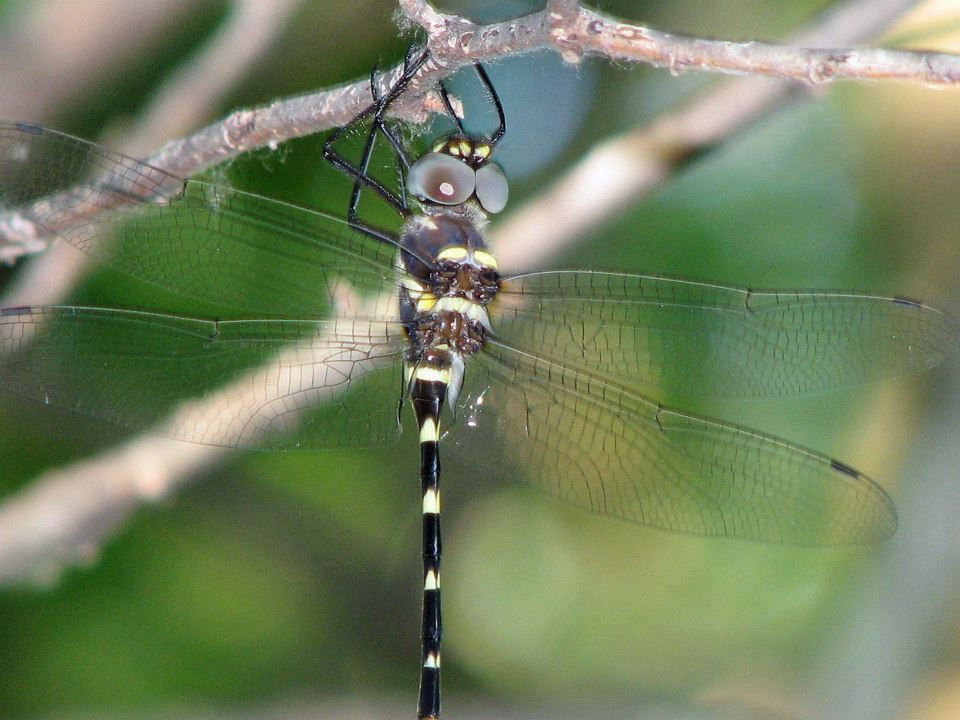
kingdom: Animalia
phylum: Arthropoda
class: Insecta
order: Odonata
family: Macromiidae
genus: Macromia
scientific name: Macromia illinoiensis
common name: Swift river cruiser
